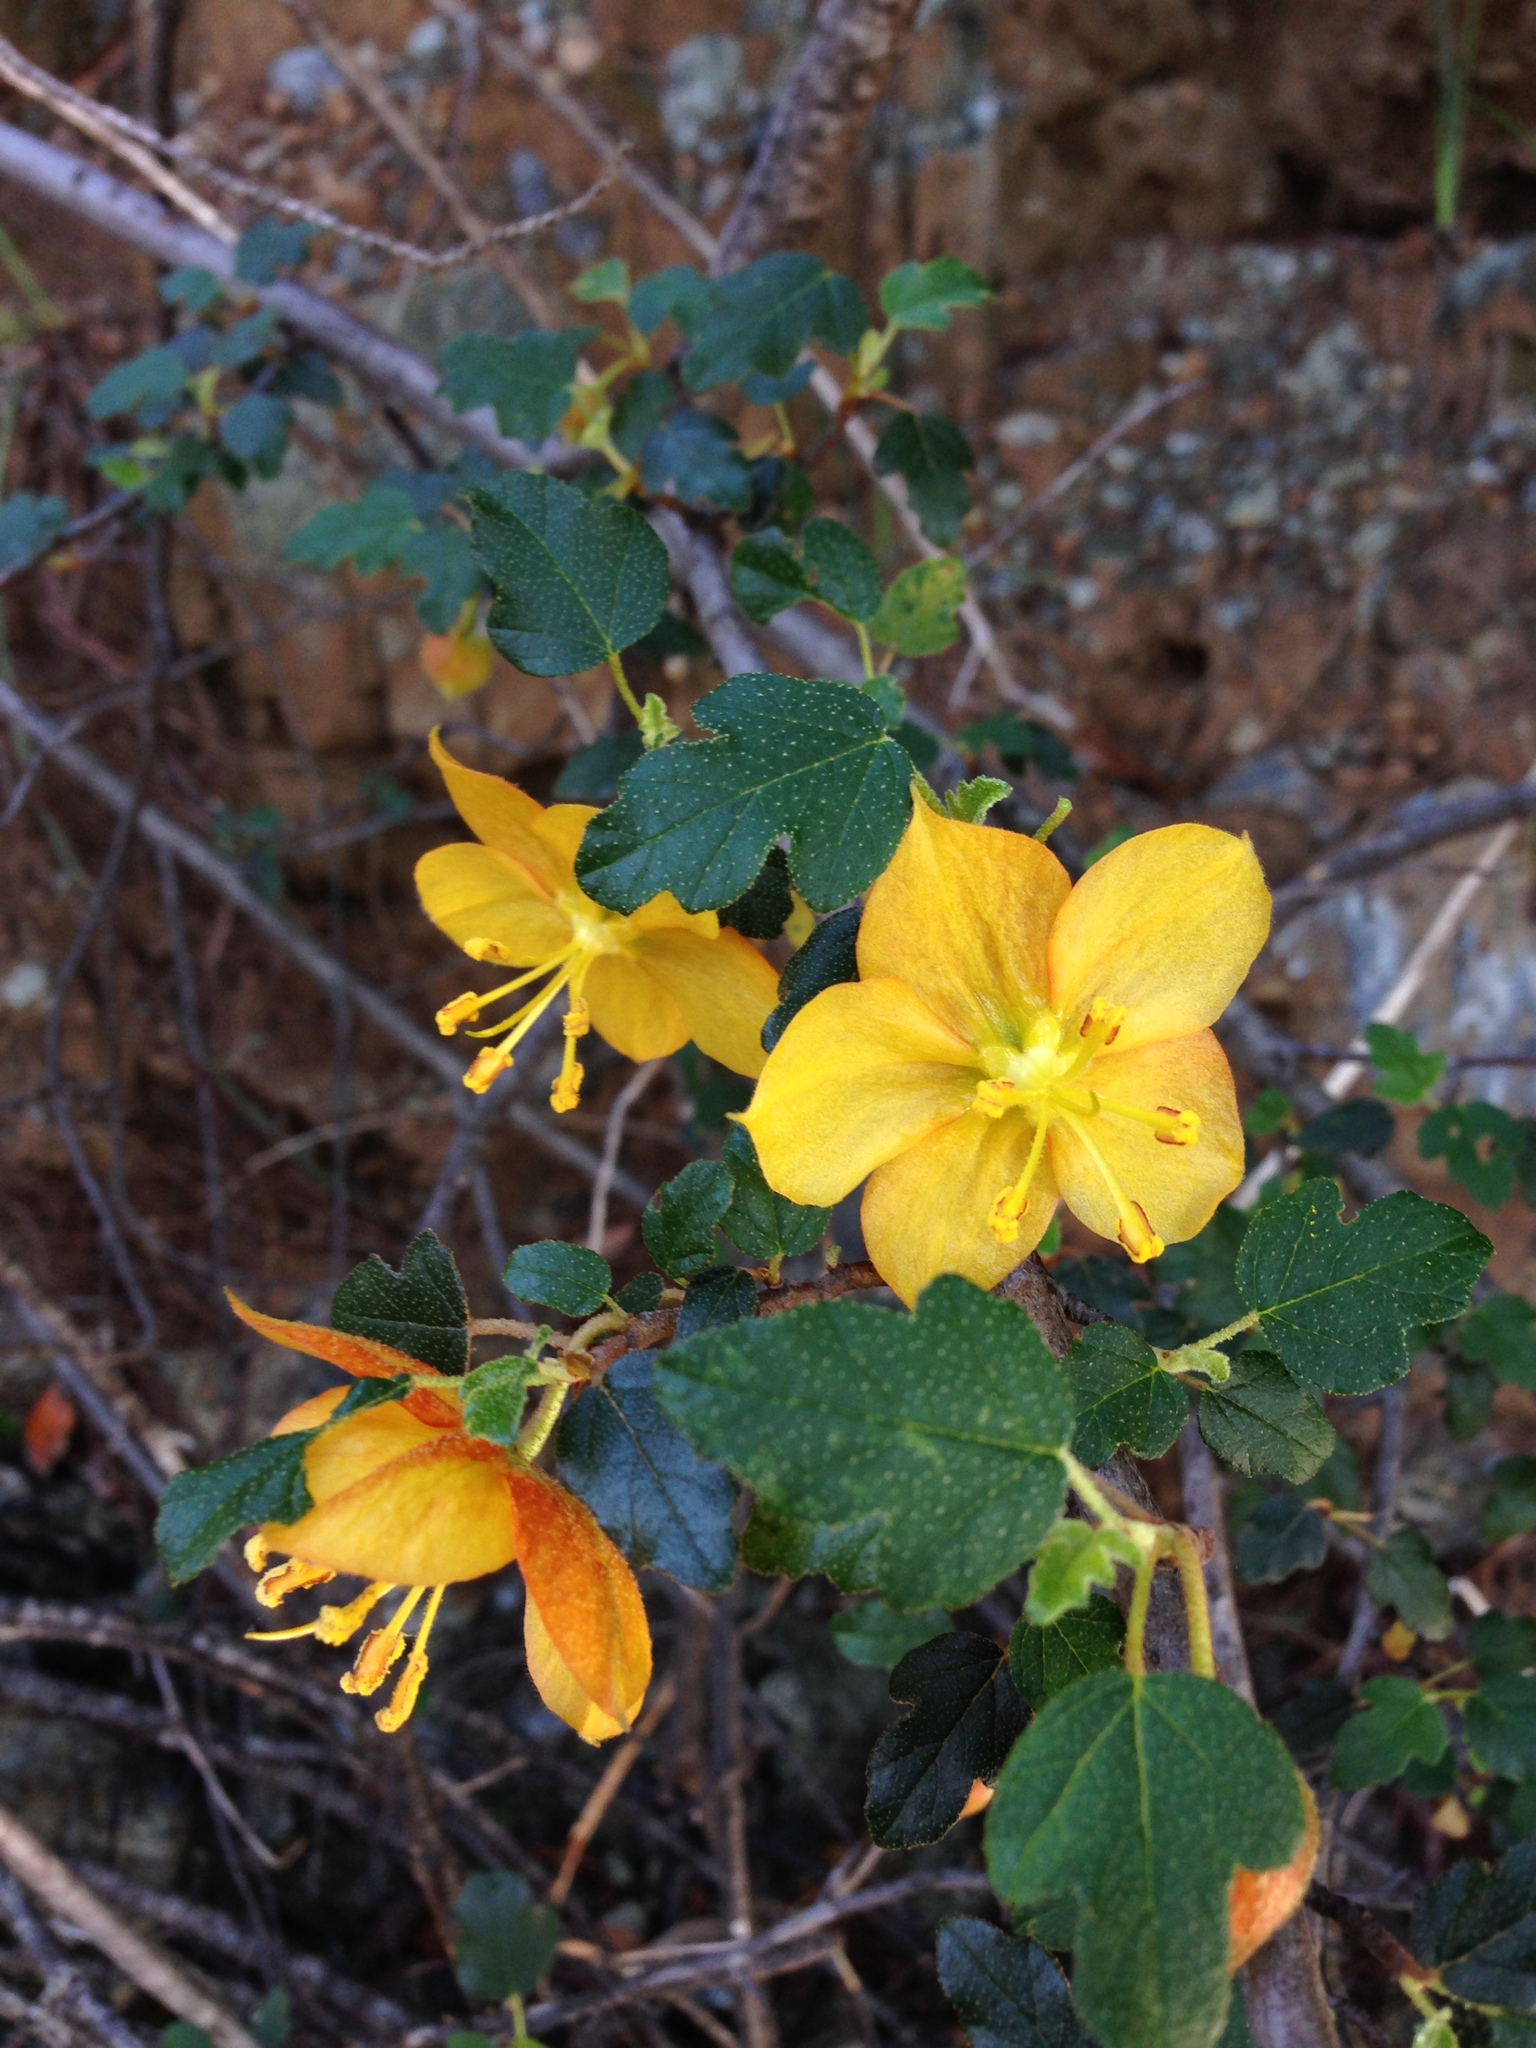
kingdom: Plantae
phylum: Tracheophyta
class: Magnoliopsida
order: Malvales
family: Malvaceae
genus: Fremontodendron
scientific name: Fremontodendron californicum
